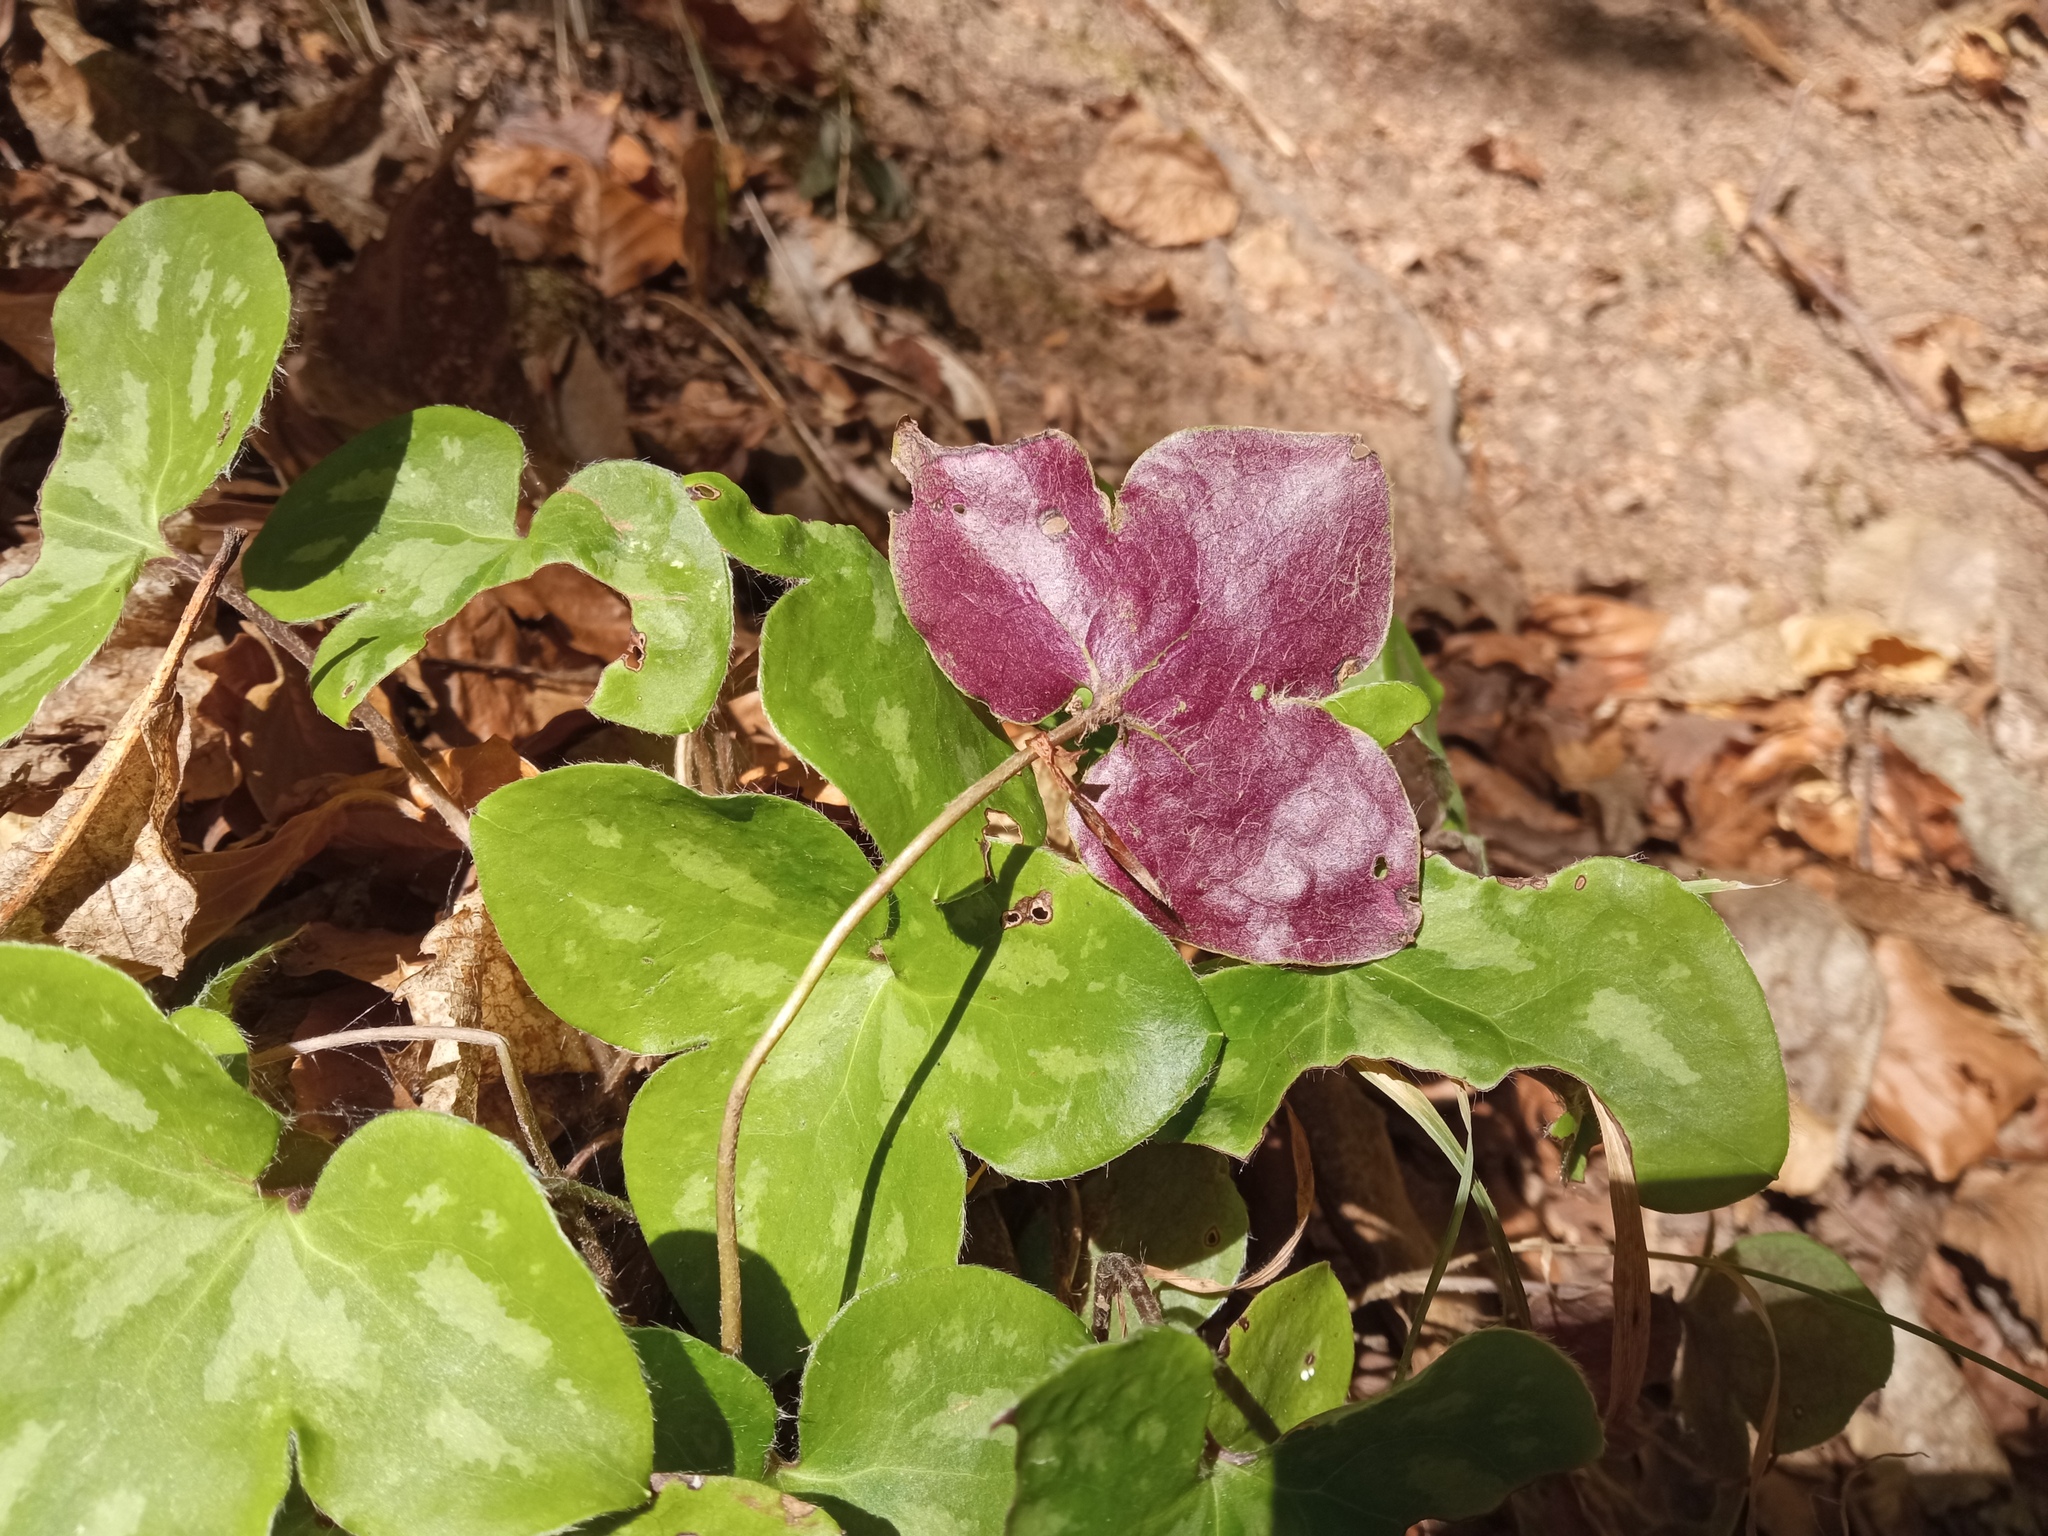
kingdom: Plantae
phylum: Tracheophyta
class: Magnoliopsida
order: Ranunculales
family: Ranunculaceae
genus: Hepatica
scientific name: Hepatica nobilis
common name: Liverleaf
